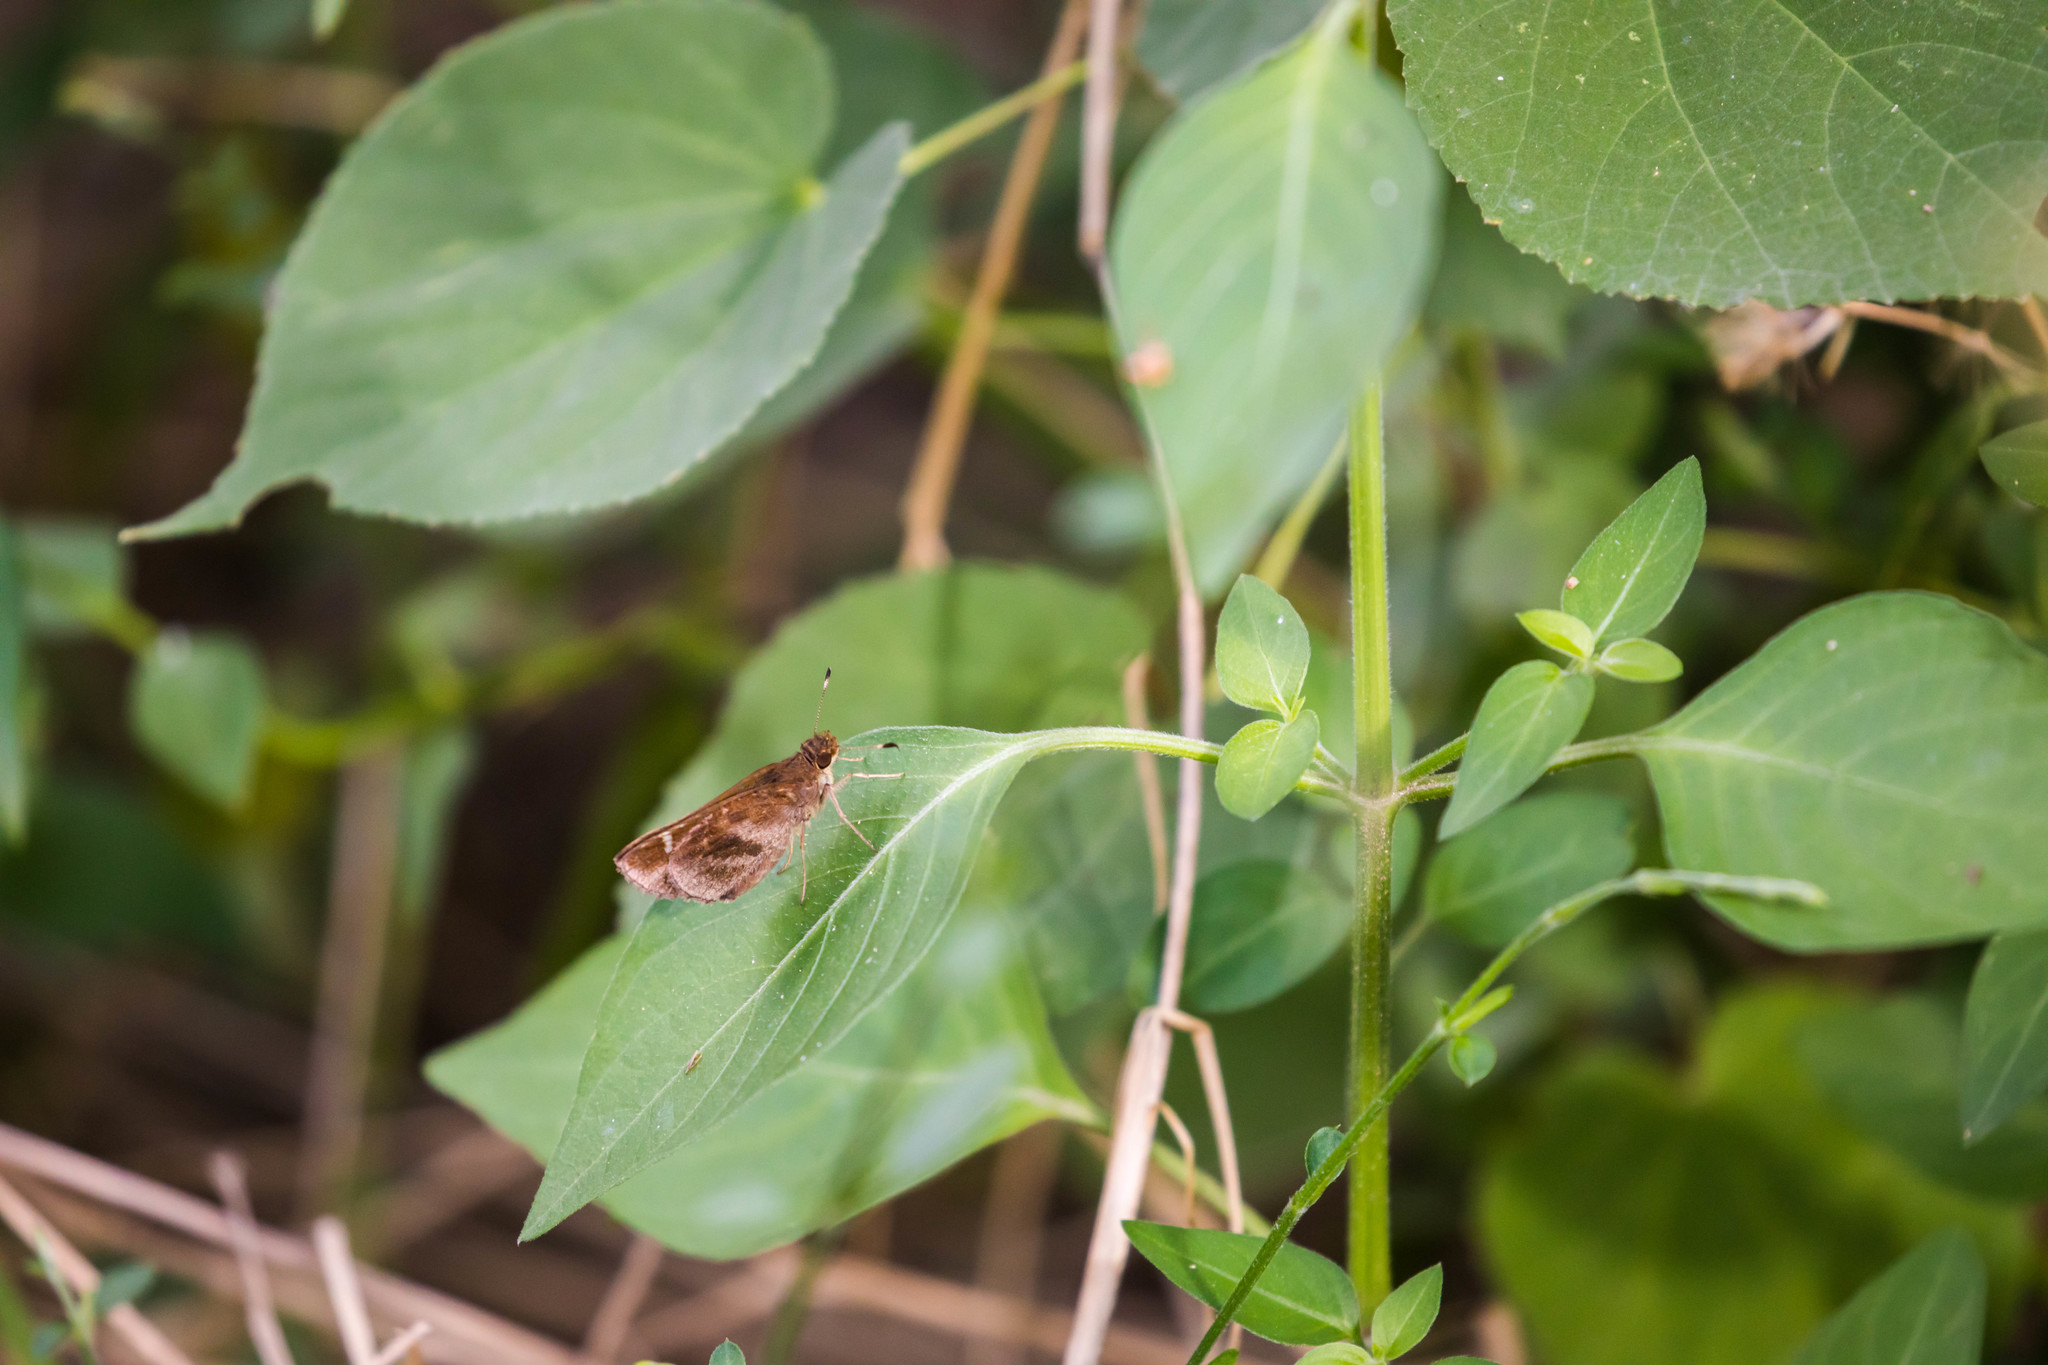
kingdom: Animalia
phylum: Arthropoda
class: Insecta
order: Lepidoptera
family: Hesperiidae
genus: Lerema
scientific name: Lerema accius
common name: Clouded skipper
